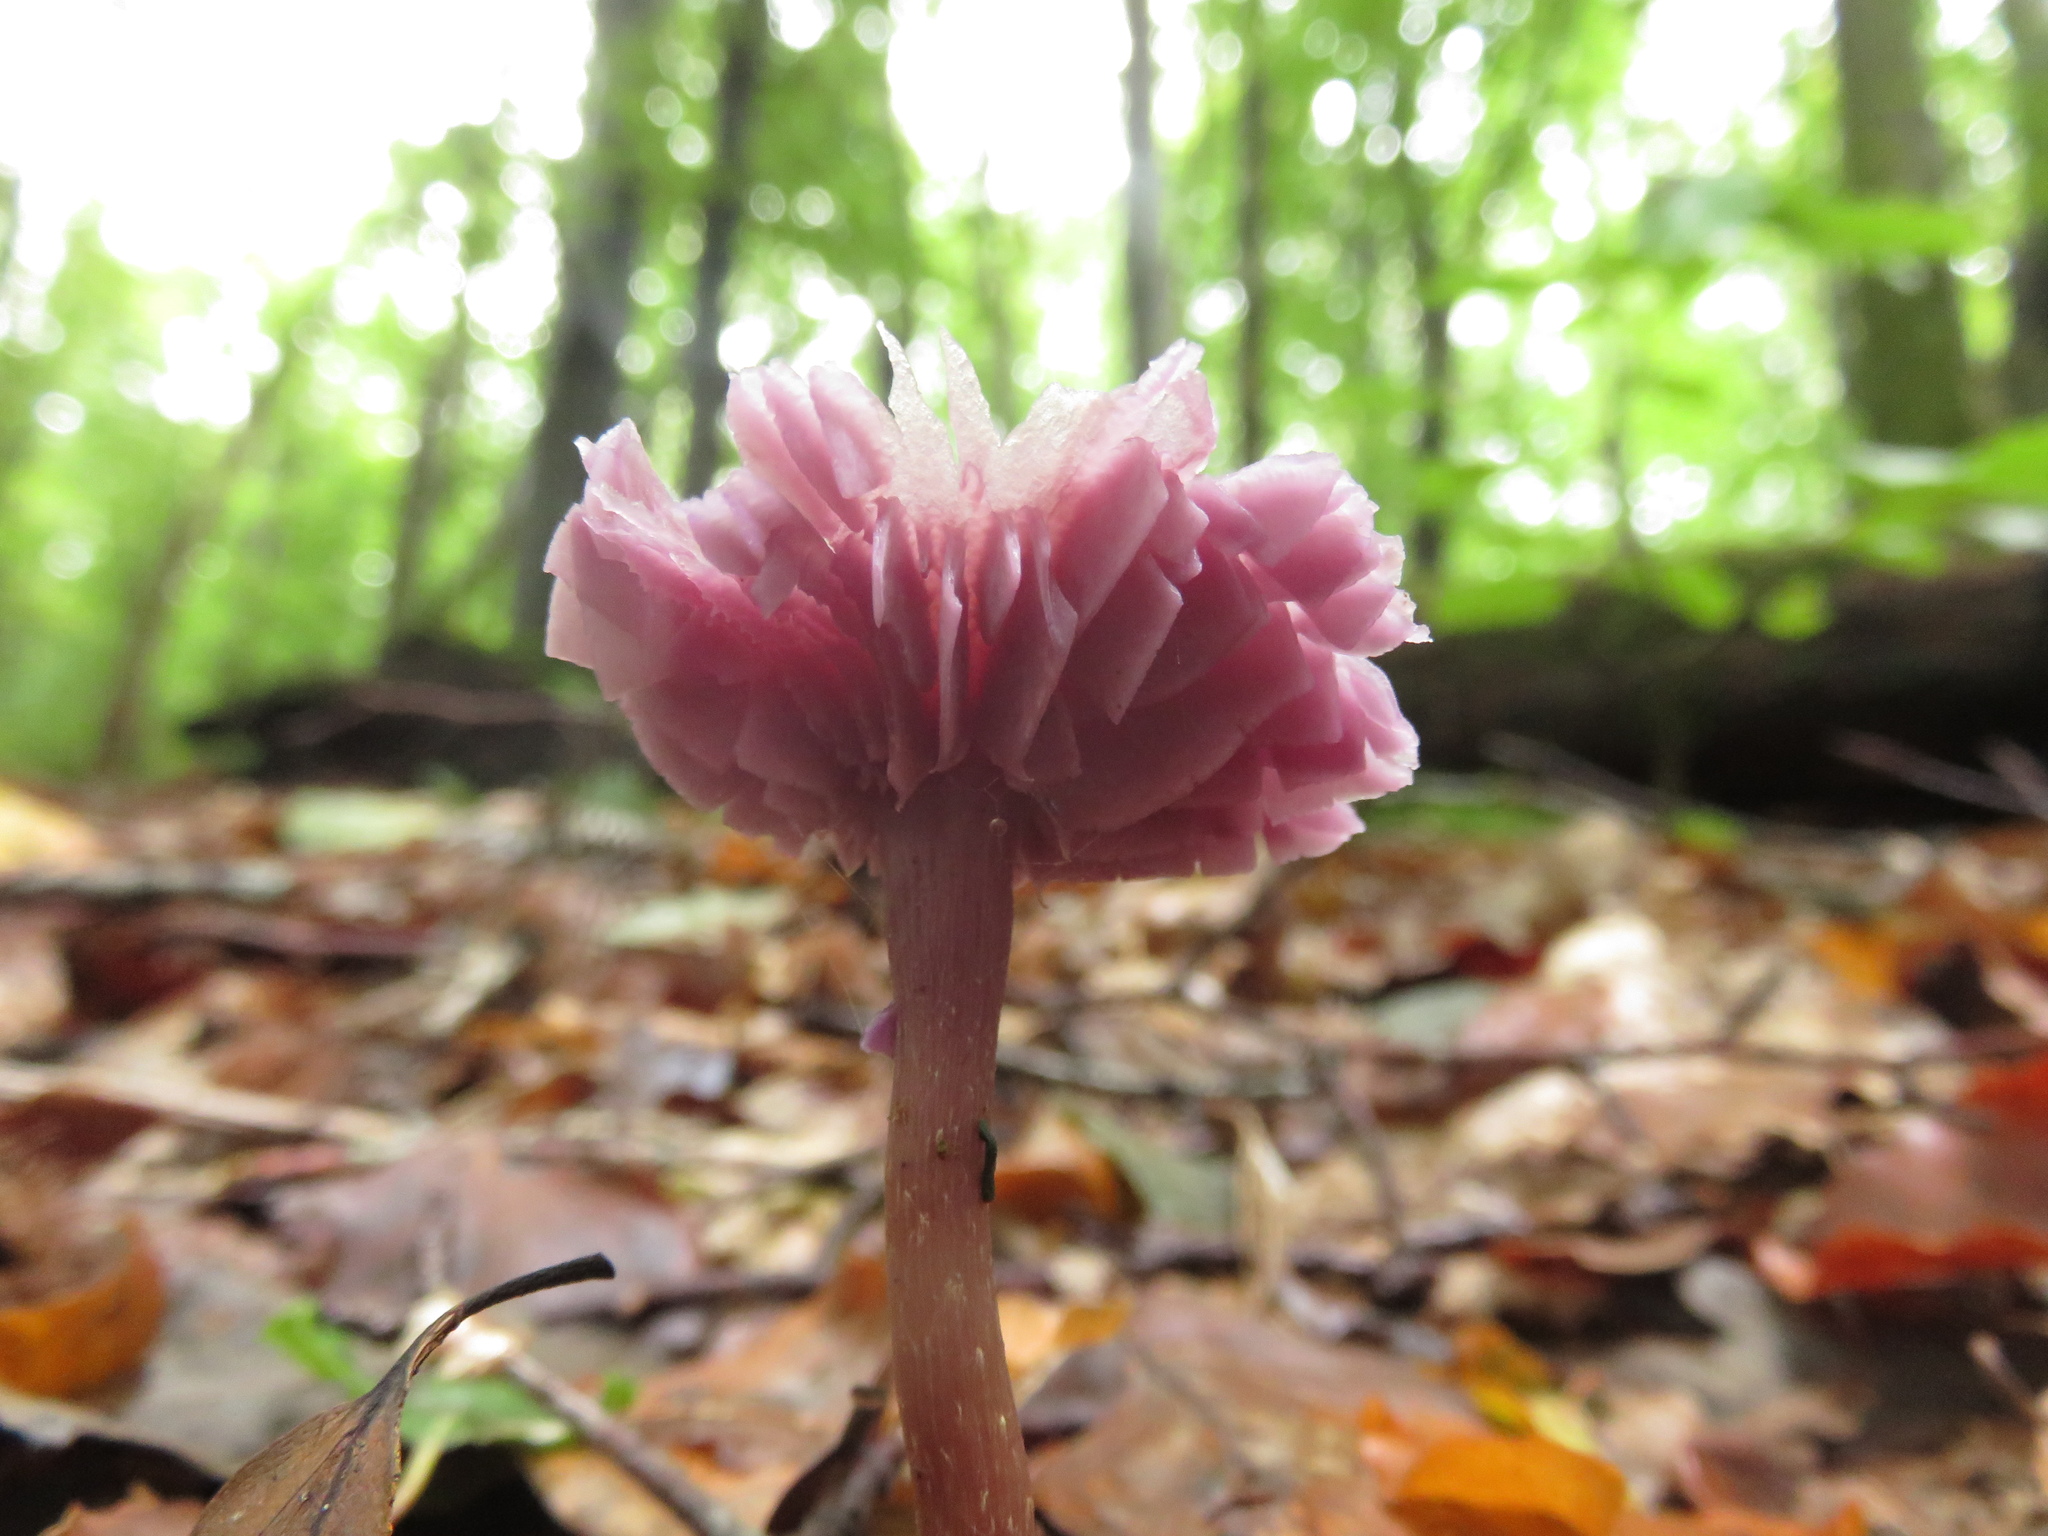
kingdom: Fungi
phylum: Basidiomycota
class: Agaricomycetes
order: Agaricales
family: Hydnangiaceae
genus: Laccaria
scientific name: Laccaria amethystina
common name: Amethyst deceiver
